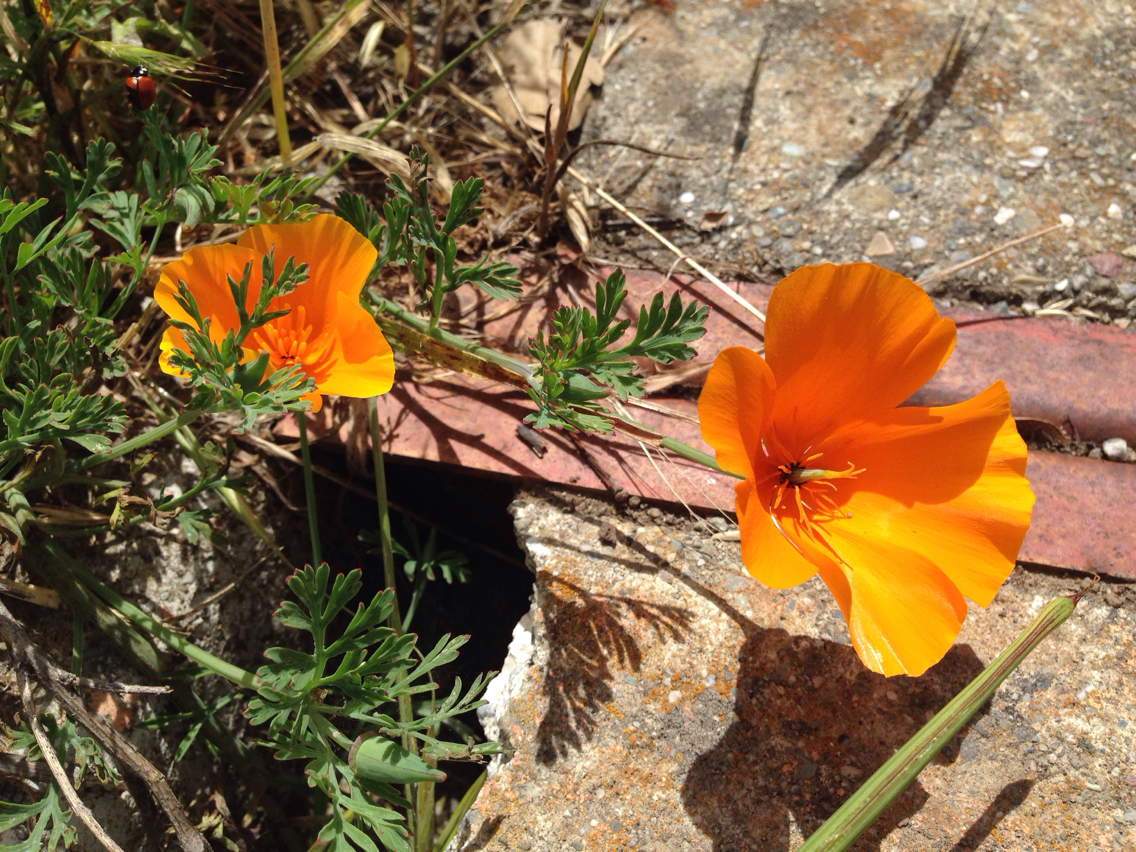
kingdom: Plantae
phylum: Tracheophyta
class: Magnoliopsida
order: Ranunculales
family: Papaveraceae
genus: Eschscholzia
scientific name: Eschscholzia californica
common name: California poppy
